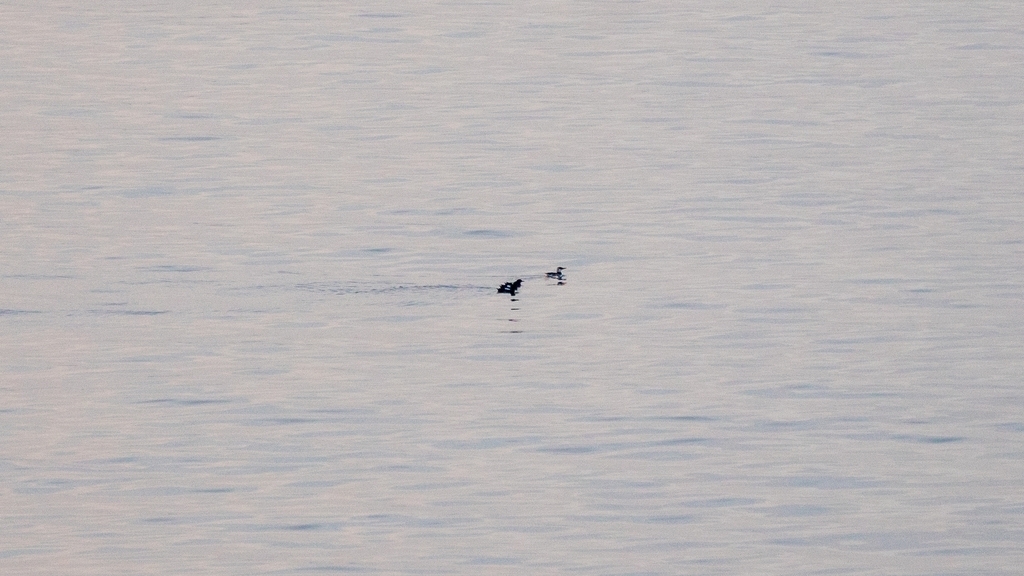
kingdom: Animalia
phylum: Chordata
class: Aves
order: Charadriiformes
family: Alcidae
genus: Uria
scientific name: Uria aalge
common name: Common murre
